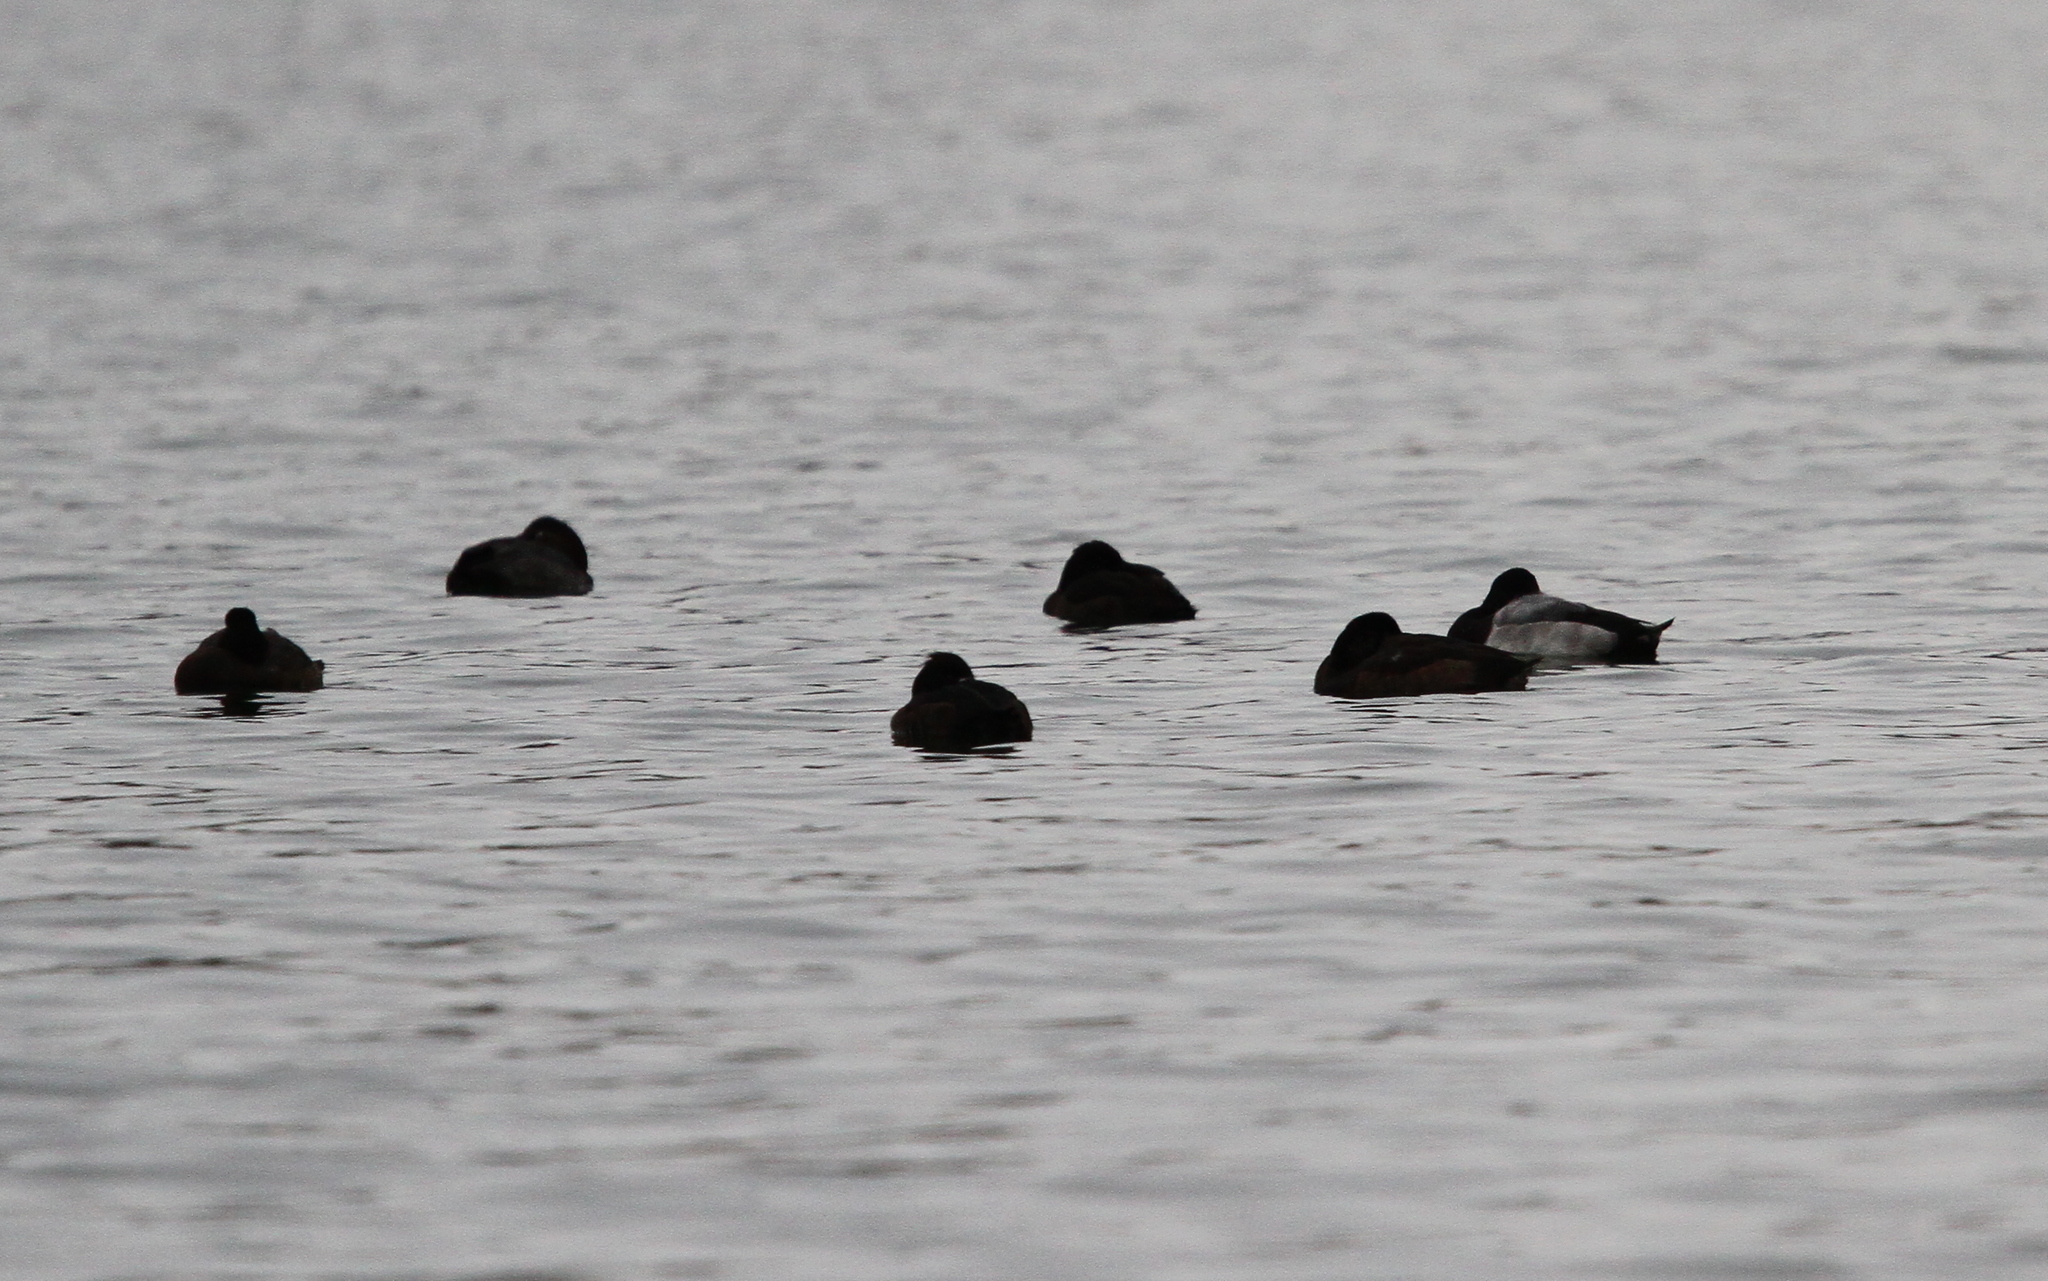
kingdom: Animalia
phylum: Chordata
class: Aves
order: Anseriformes
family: Anatidae
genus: Aythya
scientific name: Aythya marila
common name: Greater scaup
